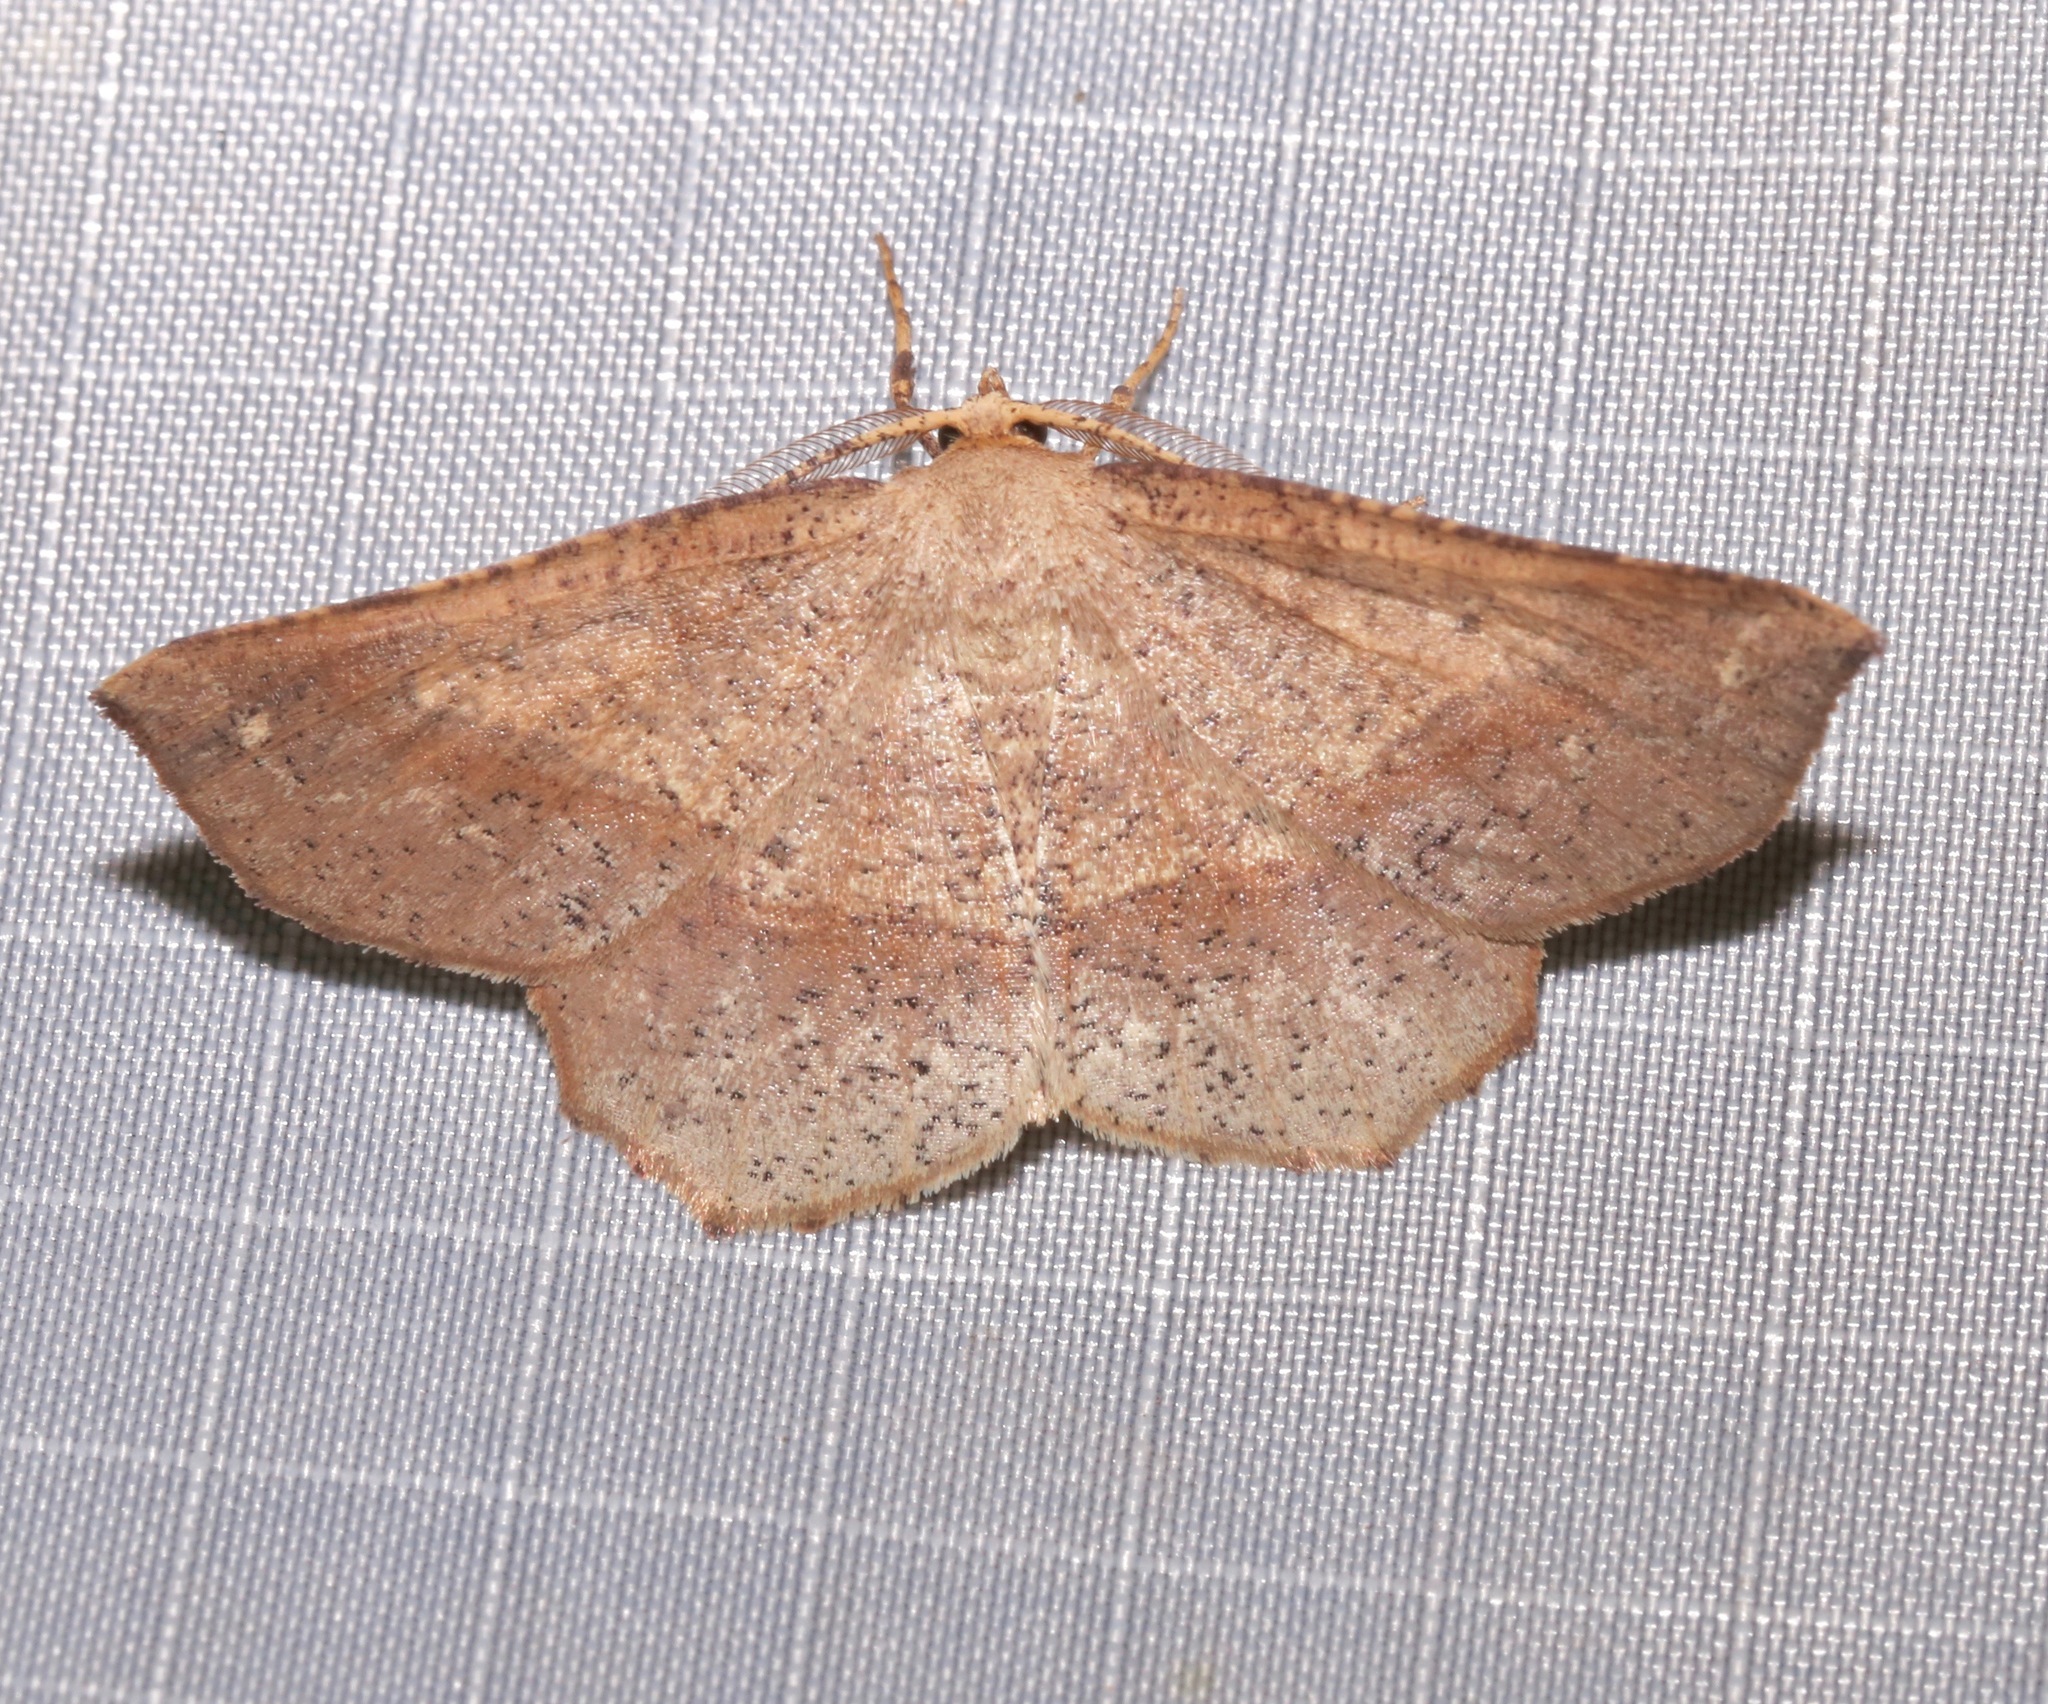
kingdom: Animalia
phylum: Arthropoda
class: Insecta
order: Lepidoptera
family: Geometridae
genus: Euchlaena
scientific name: Euchlaena deplanaria
